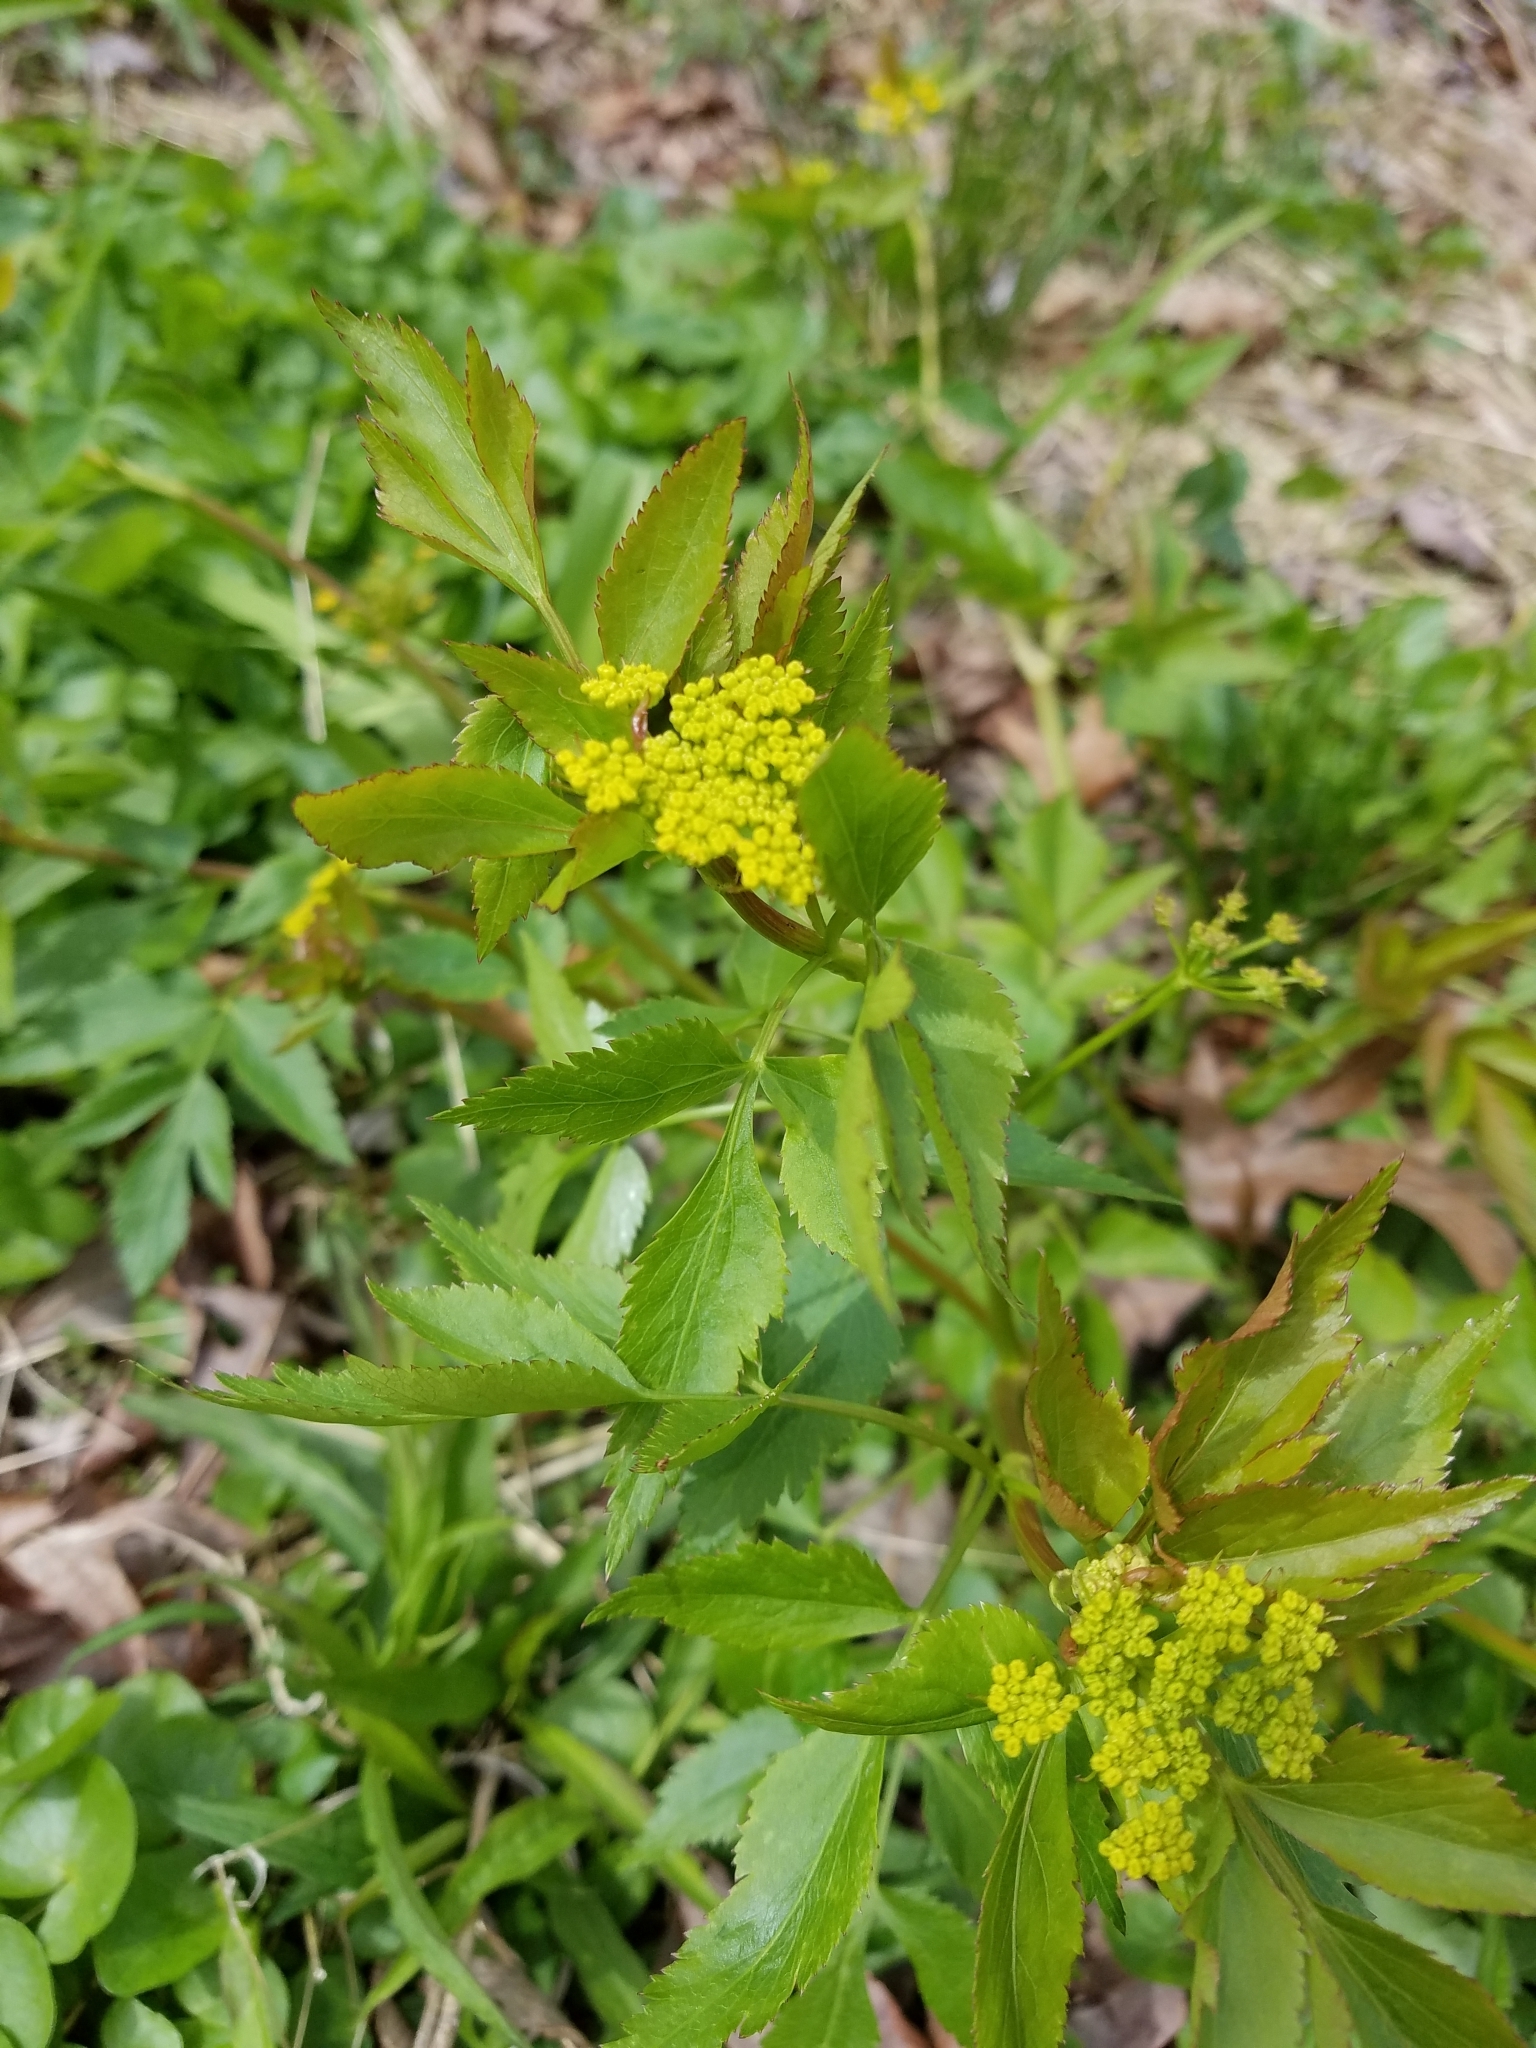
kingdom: Plantae
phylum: Tracheophyta
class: Magnoliopsida
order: Apiales
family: Apiaceae
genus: Zizia
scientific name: Zizia aurea
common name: Golden alexanders
